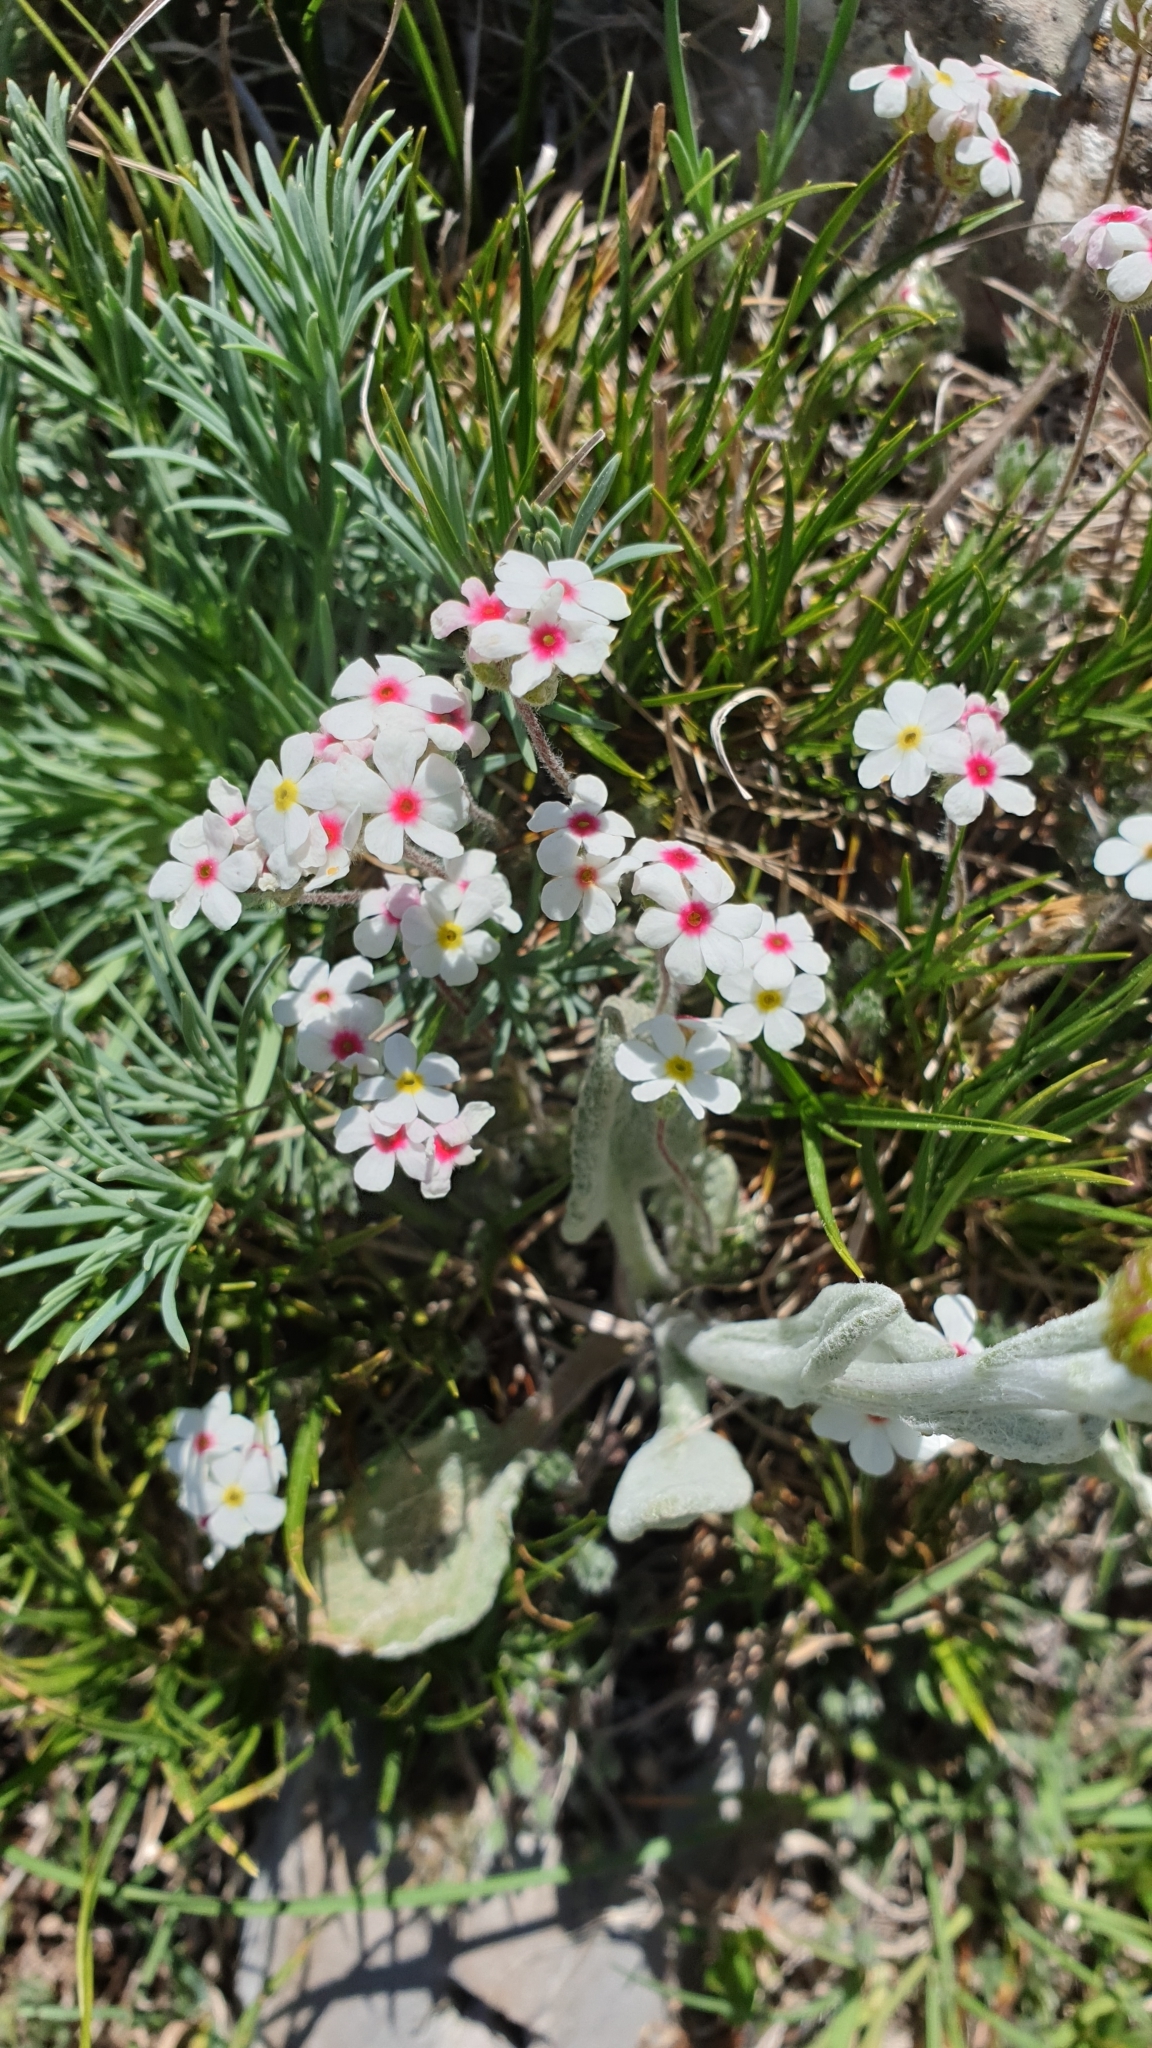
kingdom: Plantae
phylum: Tracheophyta
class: Magnoliopsida
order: Ericales
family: Primulaceae
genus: Androsace
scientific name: Androsace villosa
